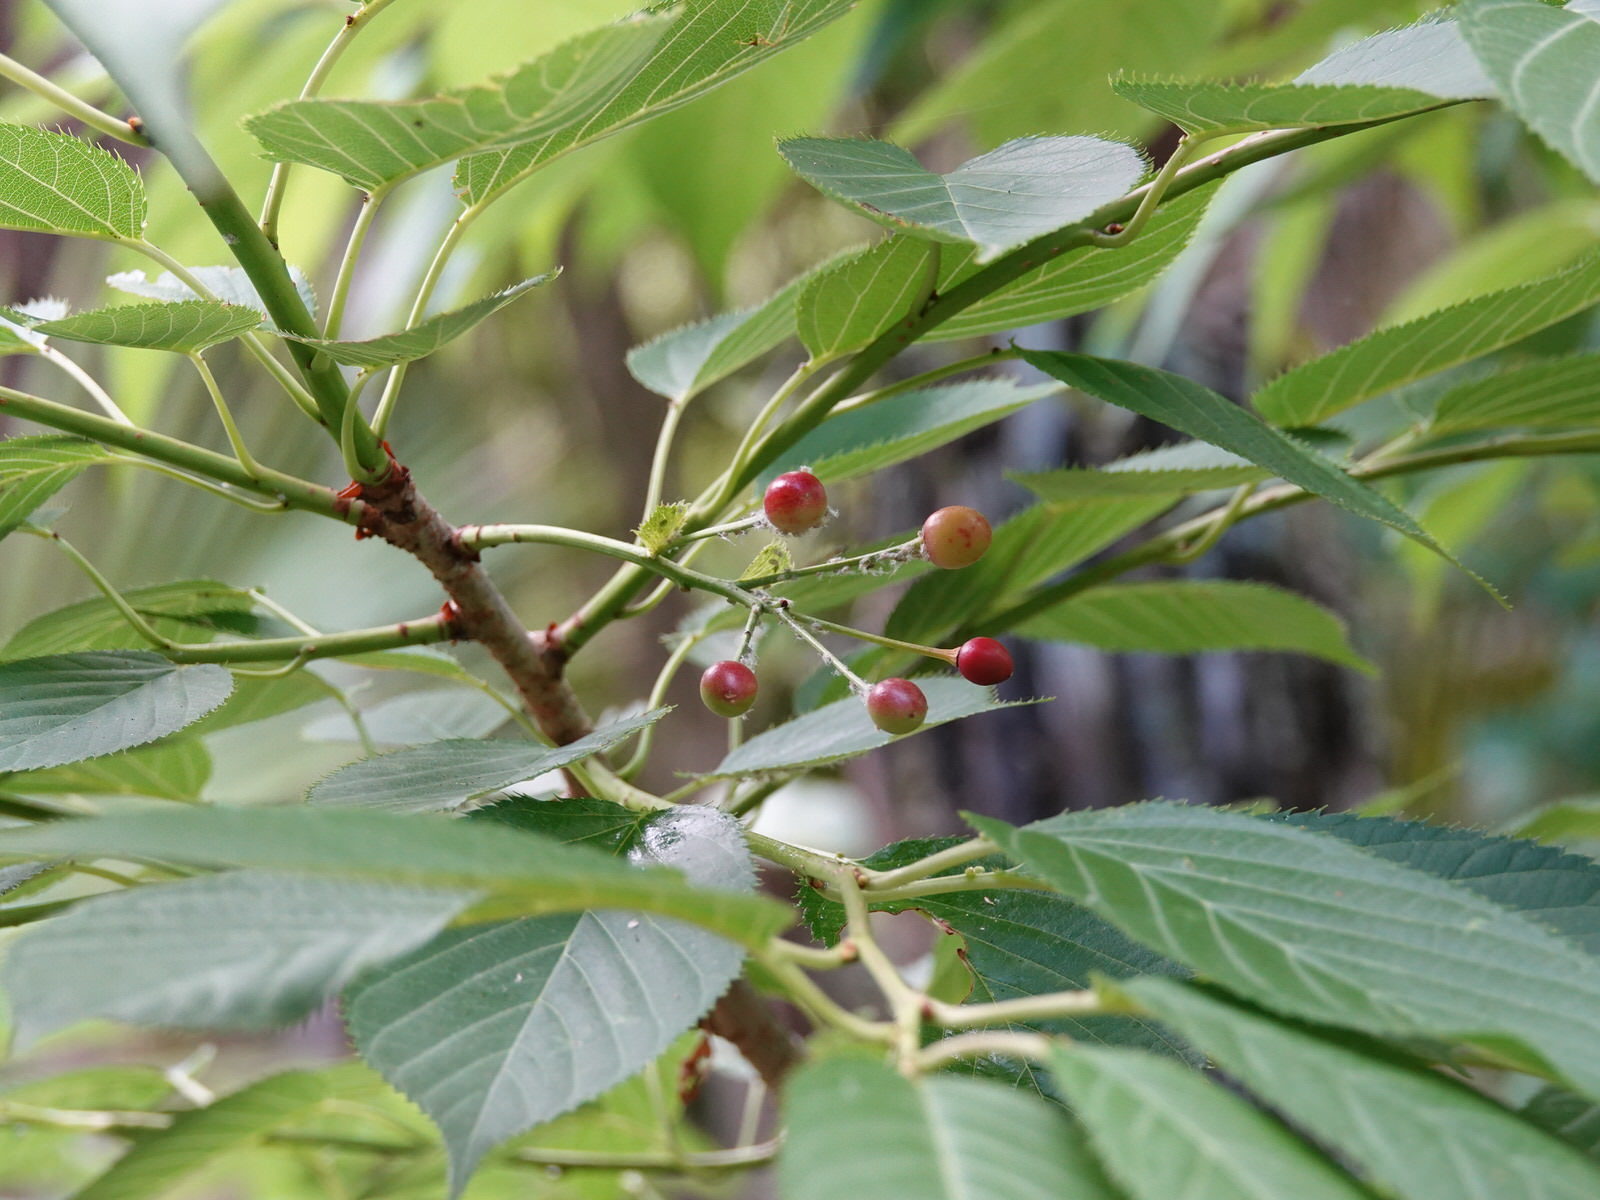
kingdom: Plantae
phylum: Tracheophyta
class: Magnoliopsida
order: Rosales
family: Rosaceae
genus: Prunus
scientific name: Prunus serrulata
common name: Japanese cherry
